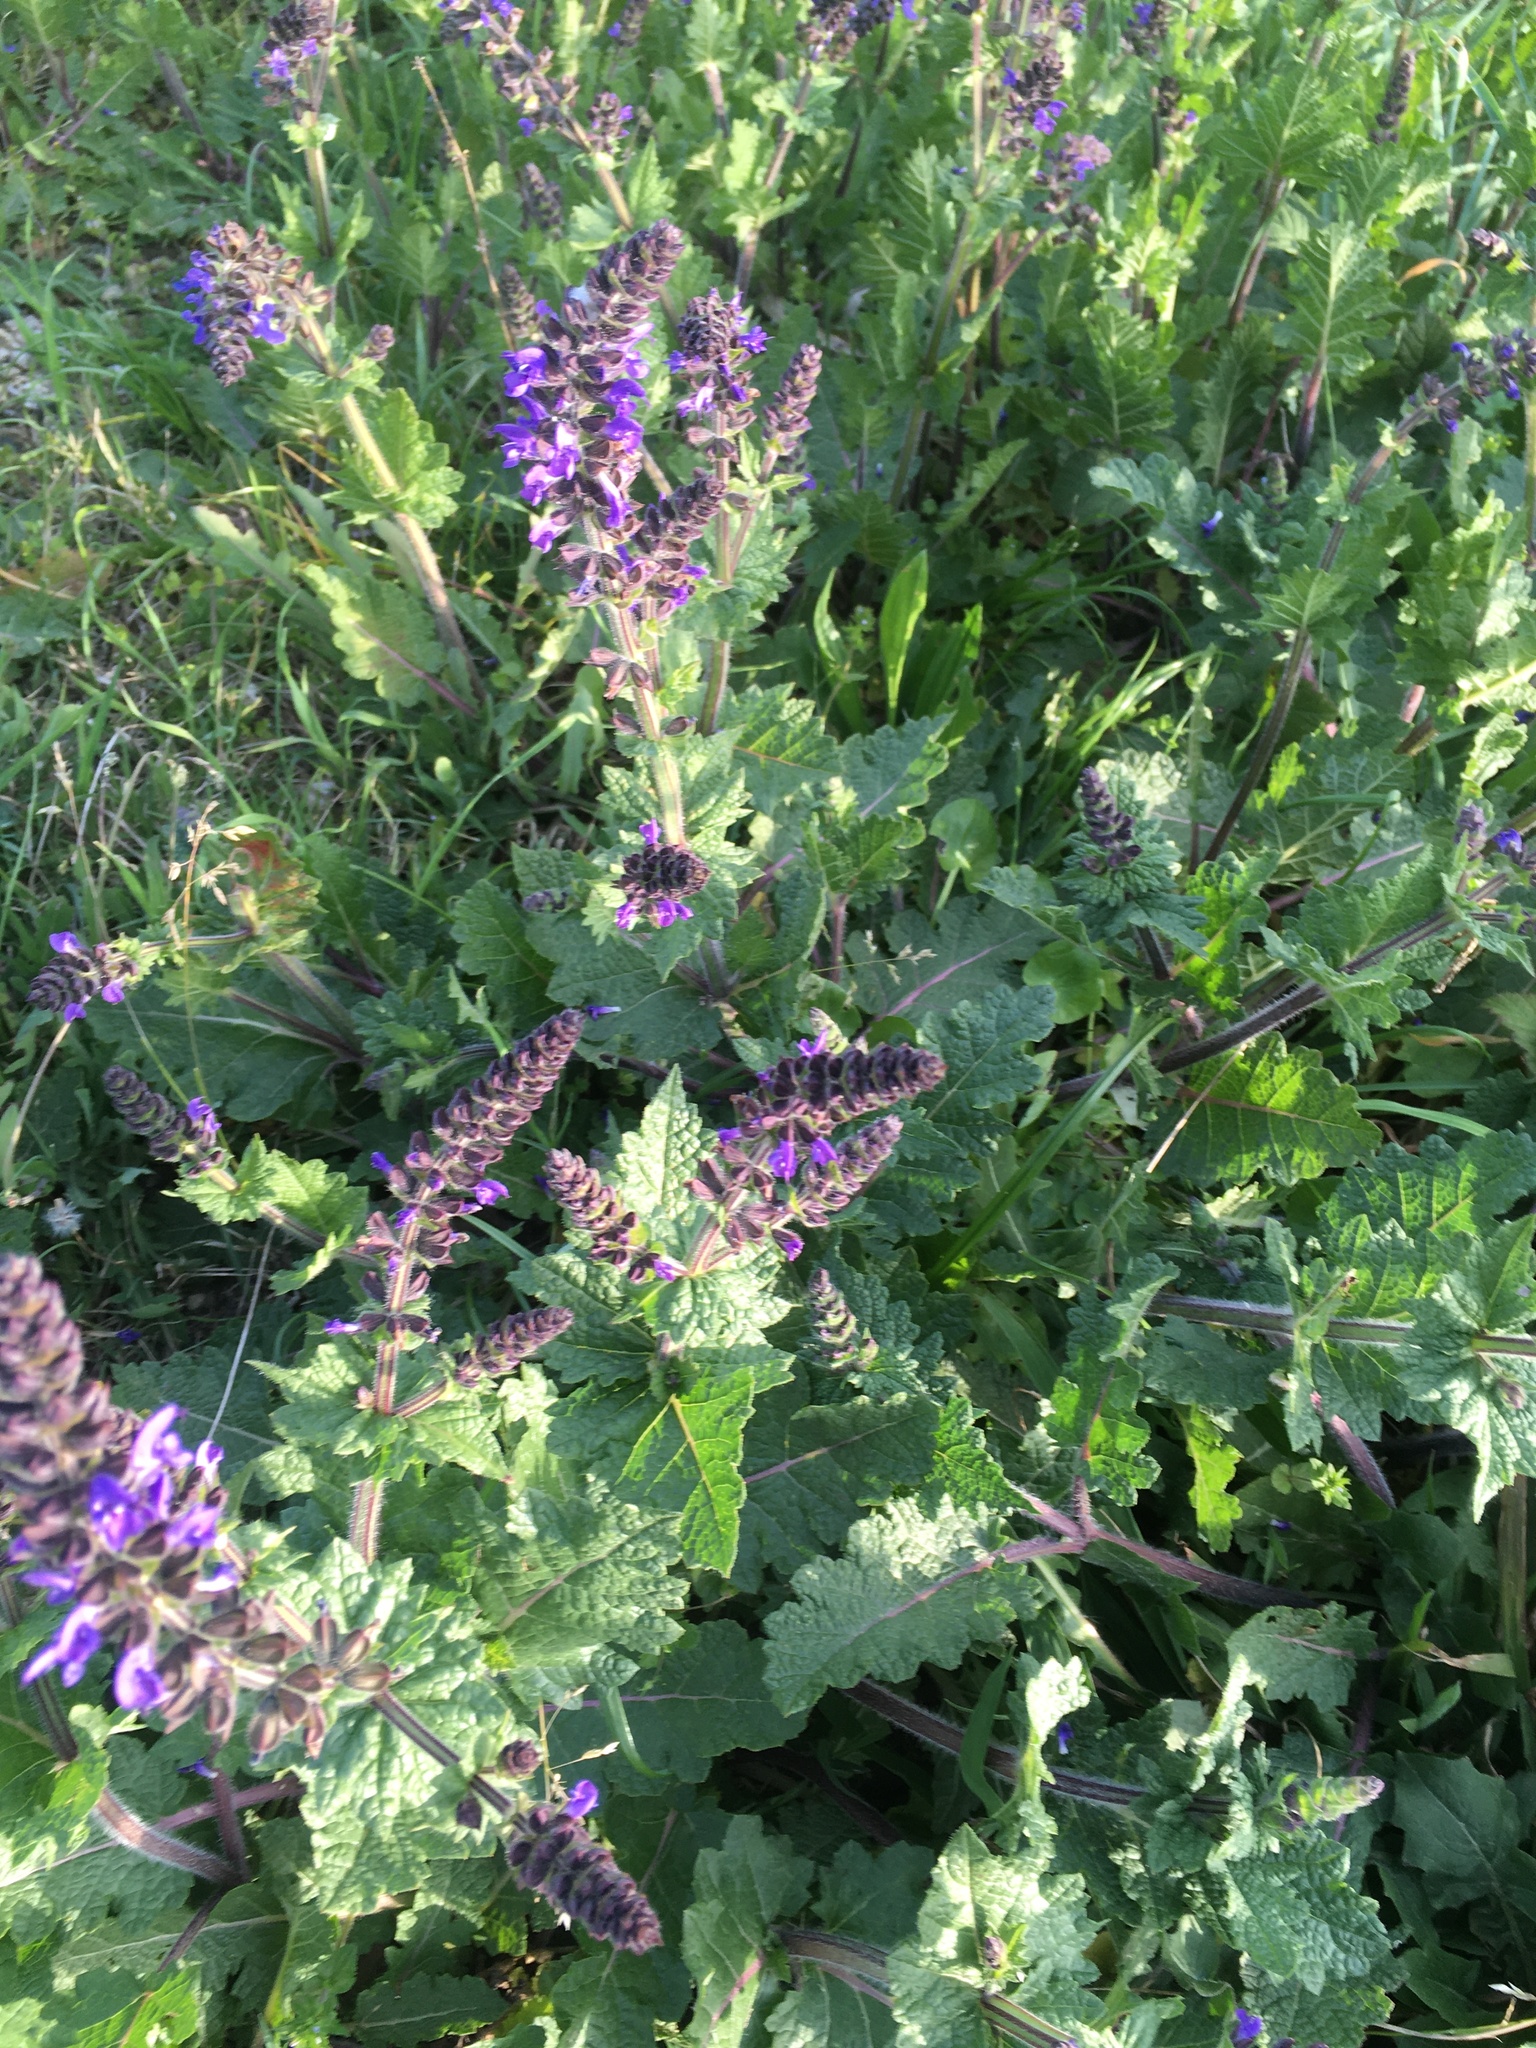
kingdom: Plantae
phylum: Tracheophyta
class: Magnoliopsida
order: Lamiales
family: Lamiaceae
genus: Salvia
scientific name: Salvia verbenaca
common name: Wild clary
